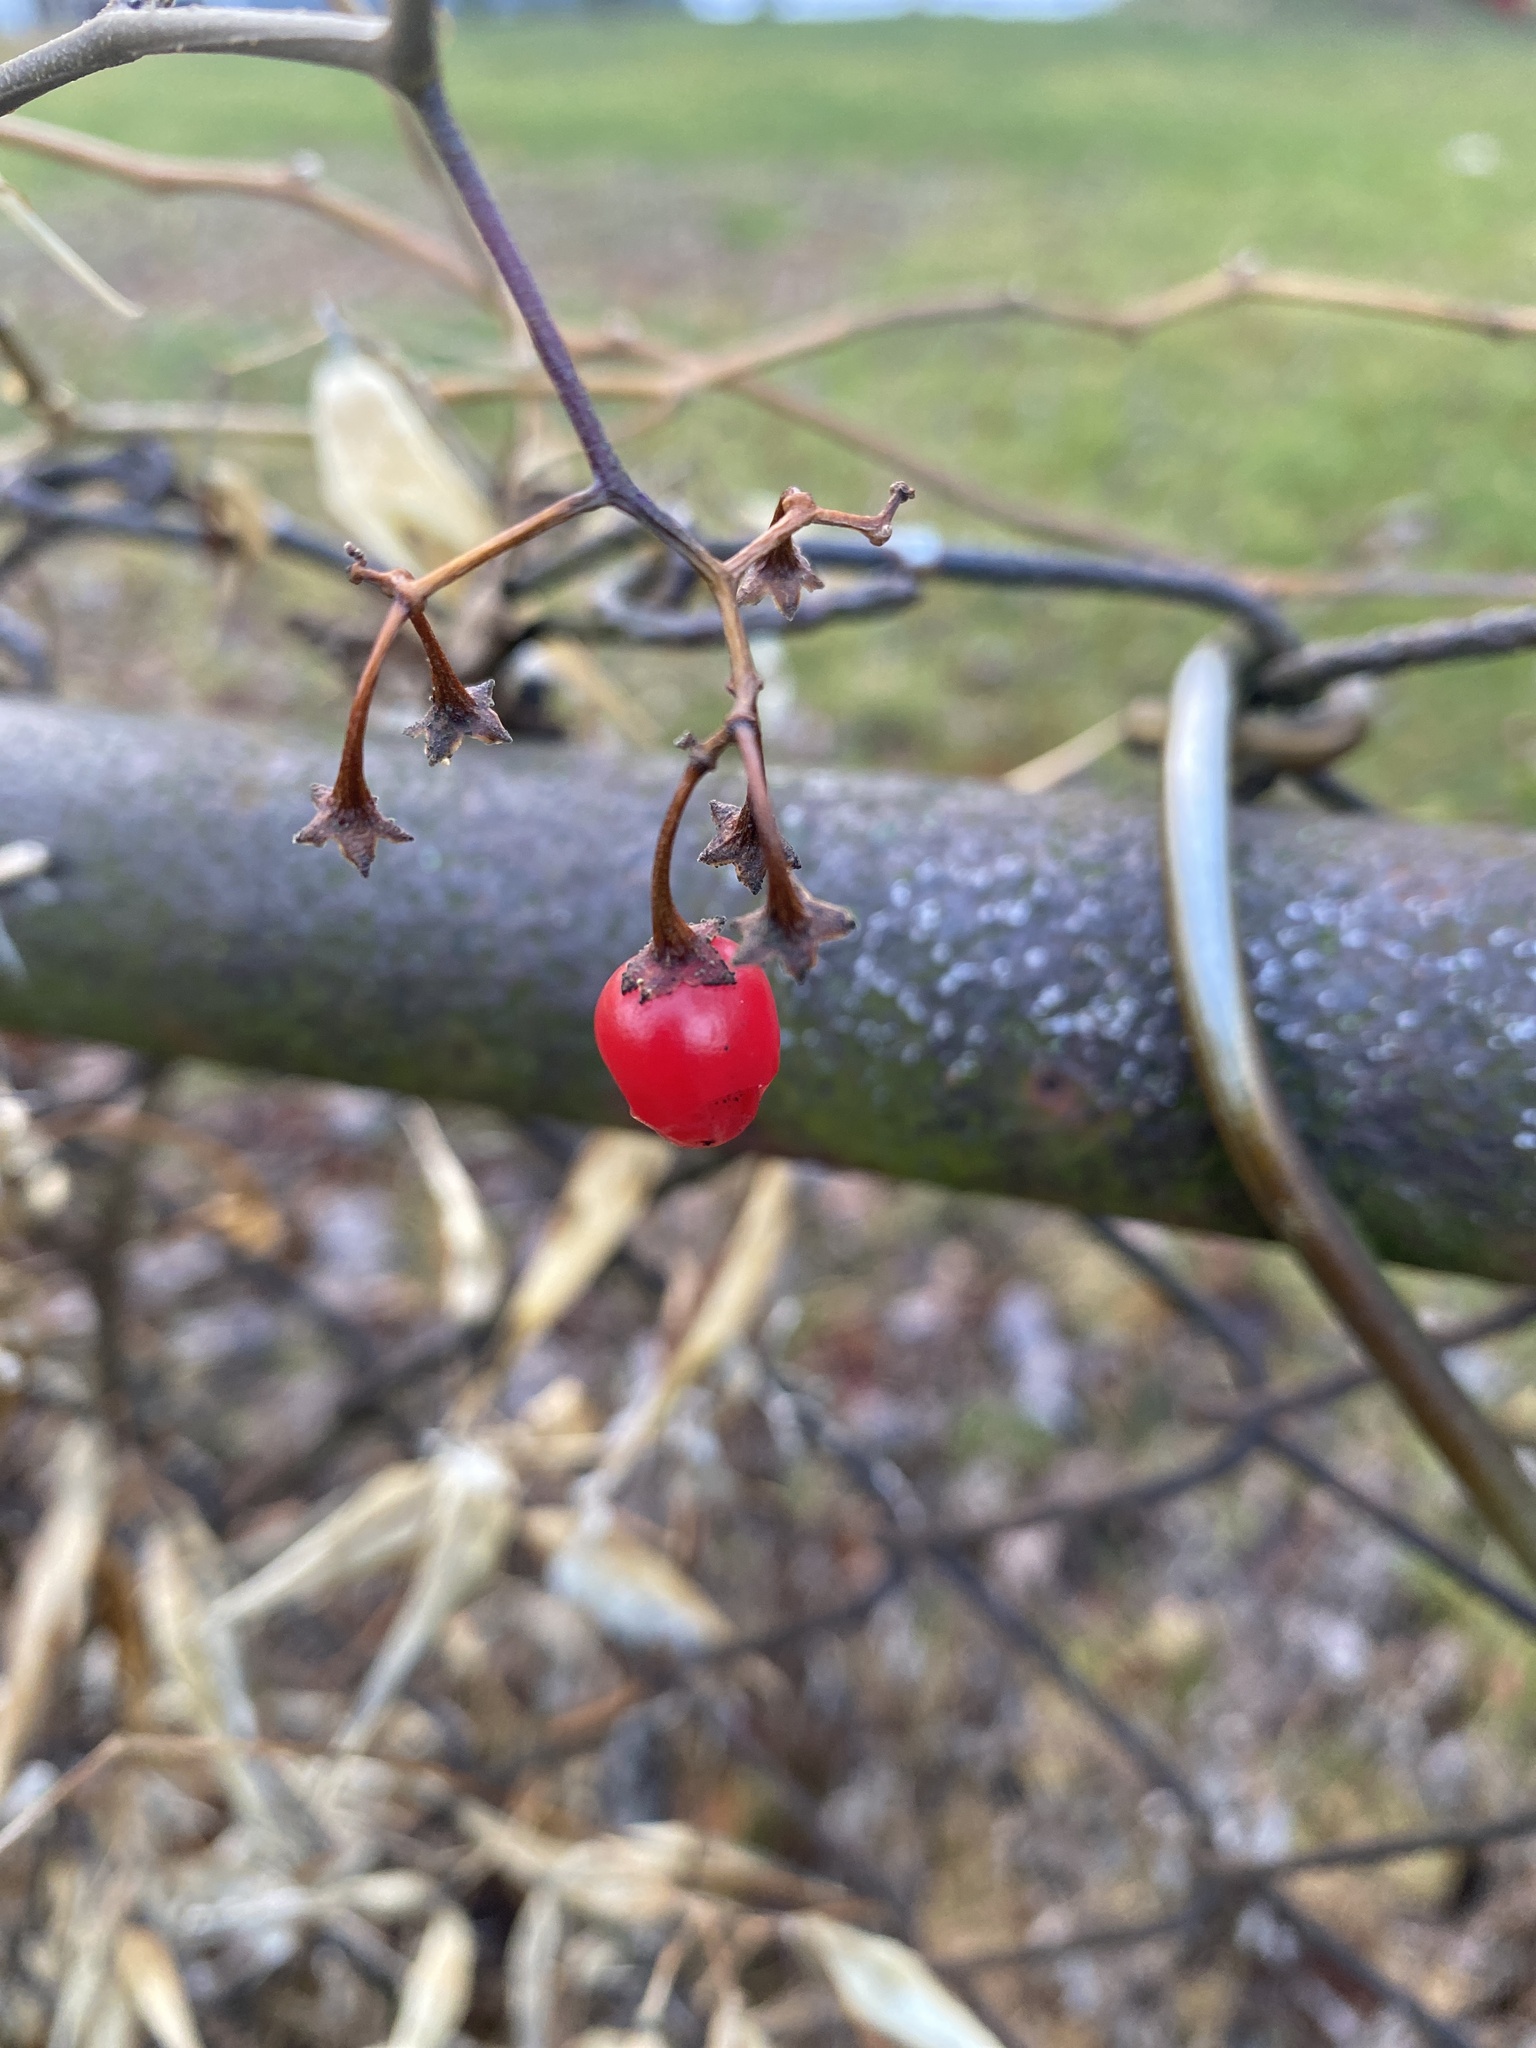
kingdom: Plantae
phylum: Tracheophyta
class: Magnoliopsida
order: Solanales
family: Solanaceae
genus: Solanum
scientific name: Solanum dulcamara
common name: Climbing nightshade
